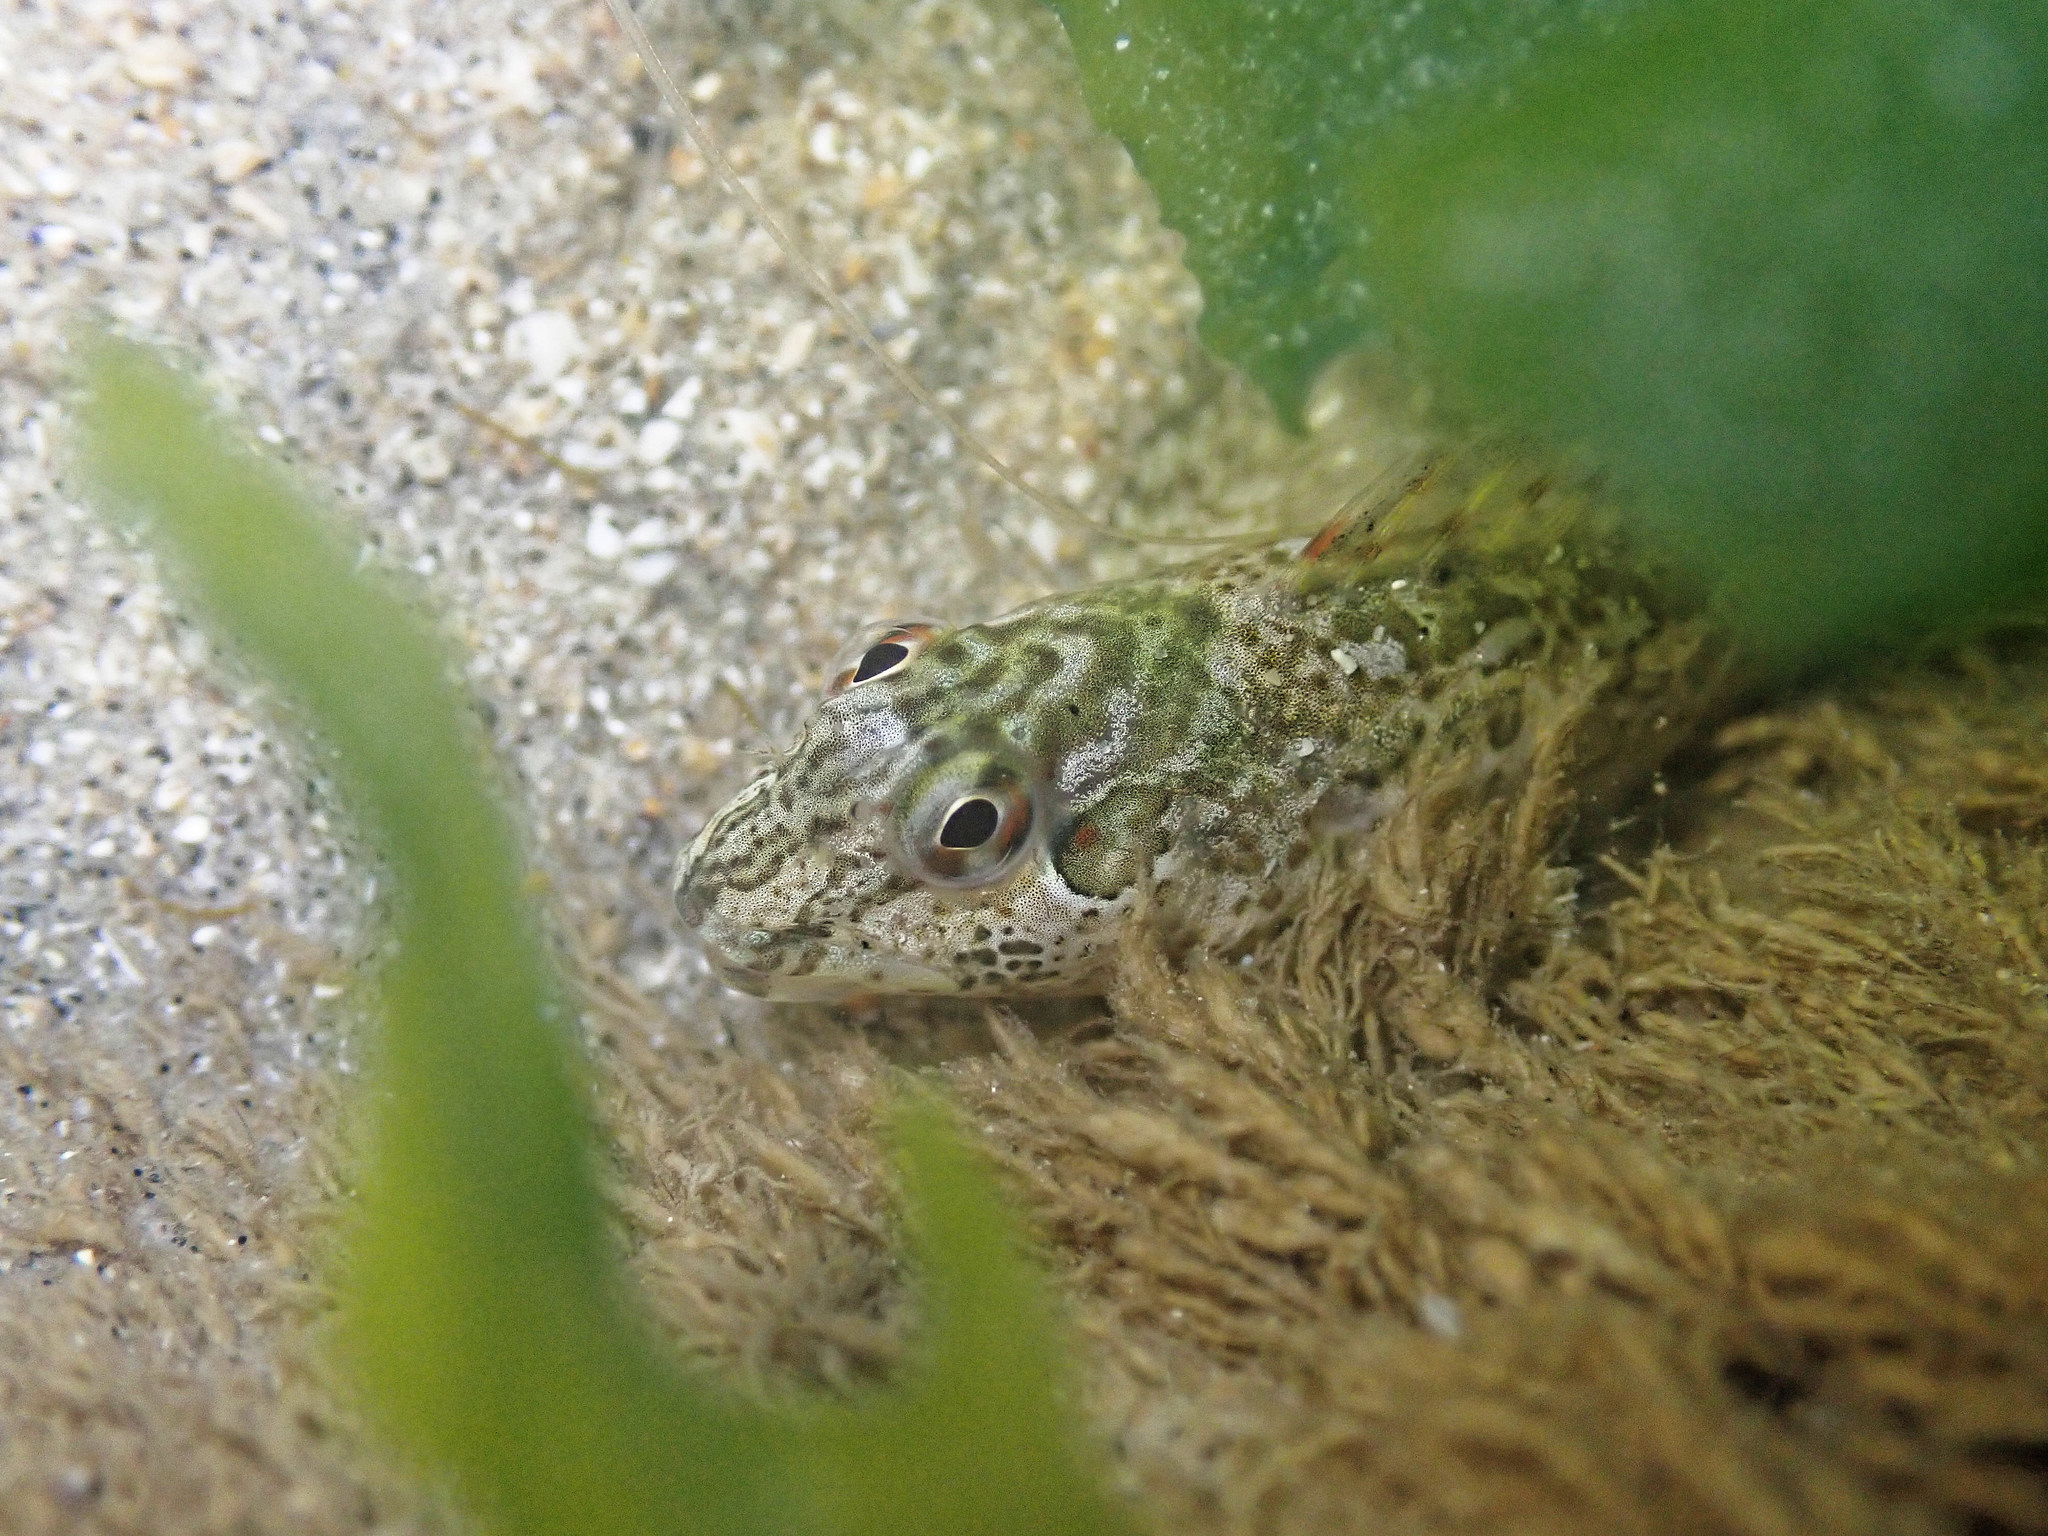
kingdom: Animalia
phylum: Chordata
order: Perciformes
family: Blenniidae
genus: Lipophrys
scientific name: Lipophrys pholis
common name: Shanny
